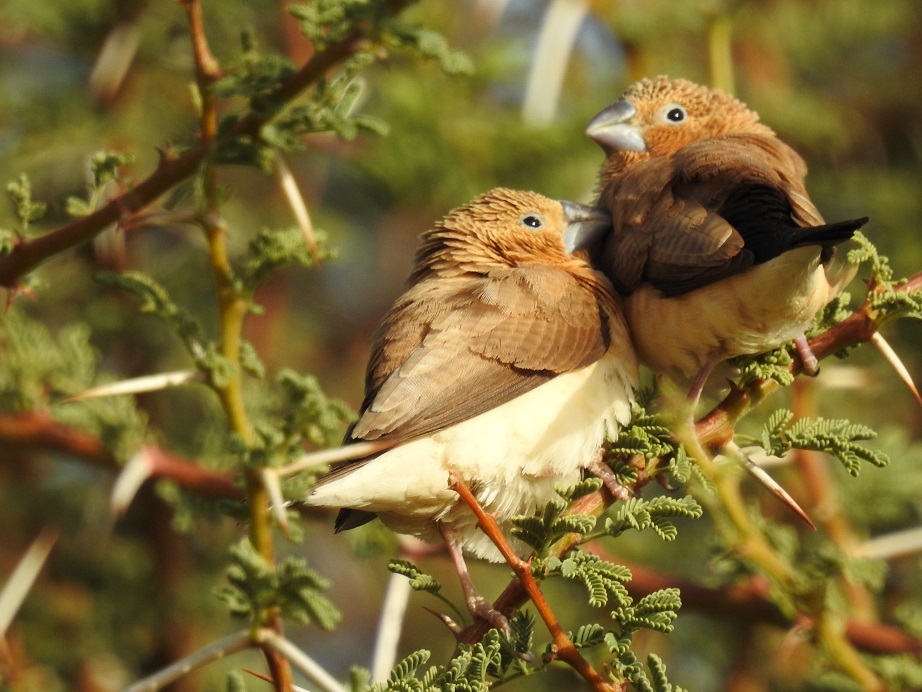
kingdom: Animalia
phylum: Chordata
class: Aves
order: Passeriformes
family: Estrildidae
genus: Euodice
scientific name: Euodice cantans
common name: African silverbill
